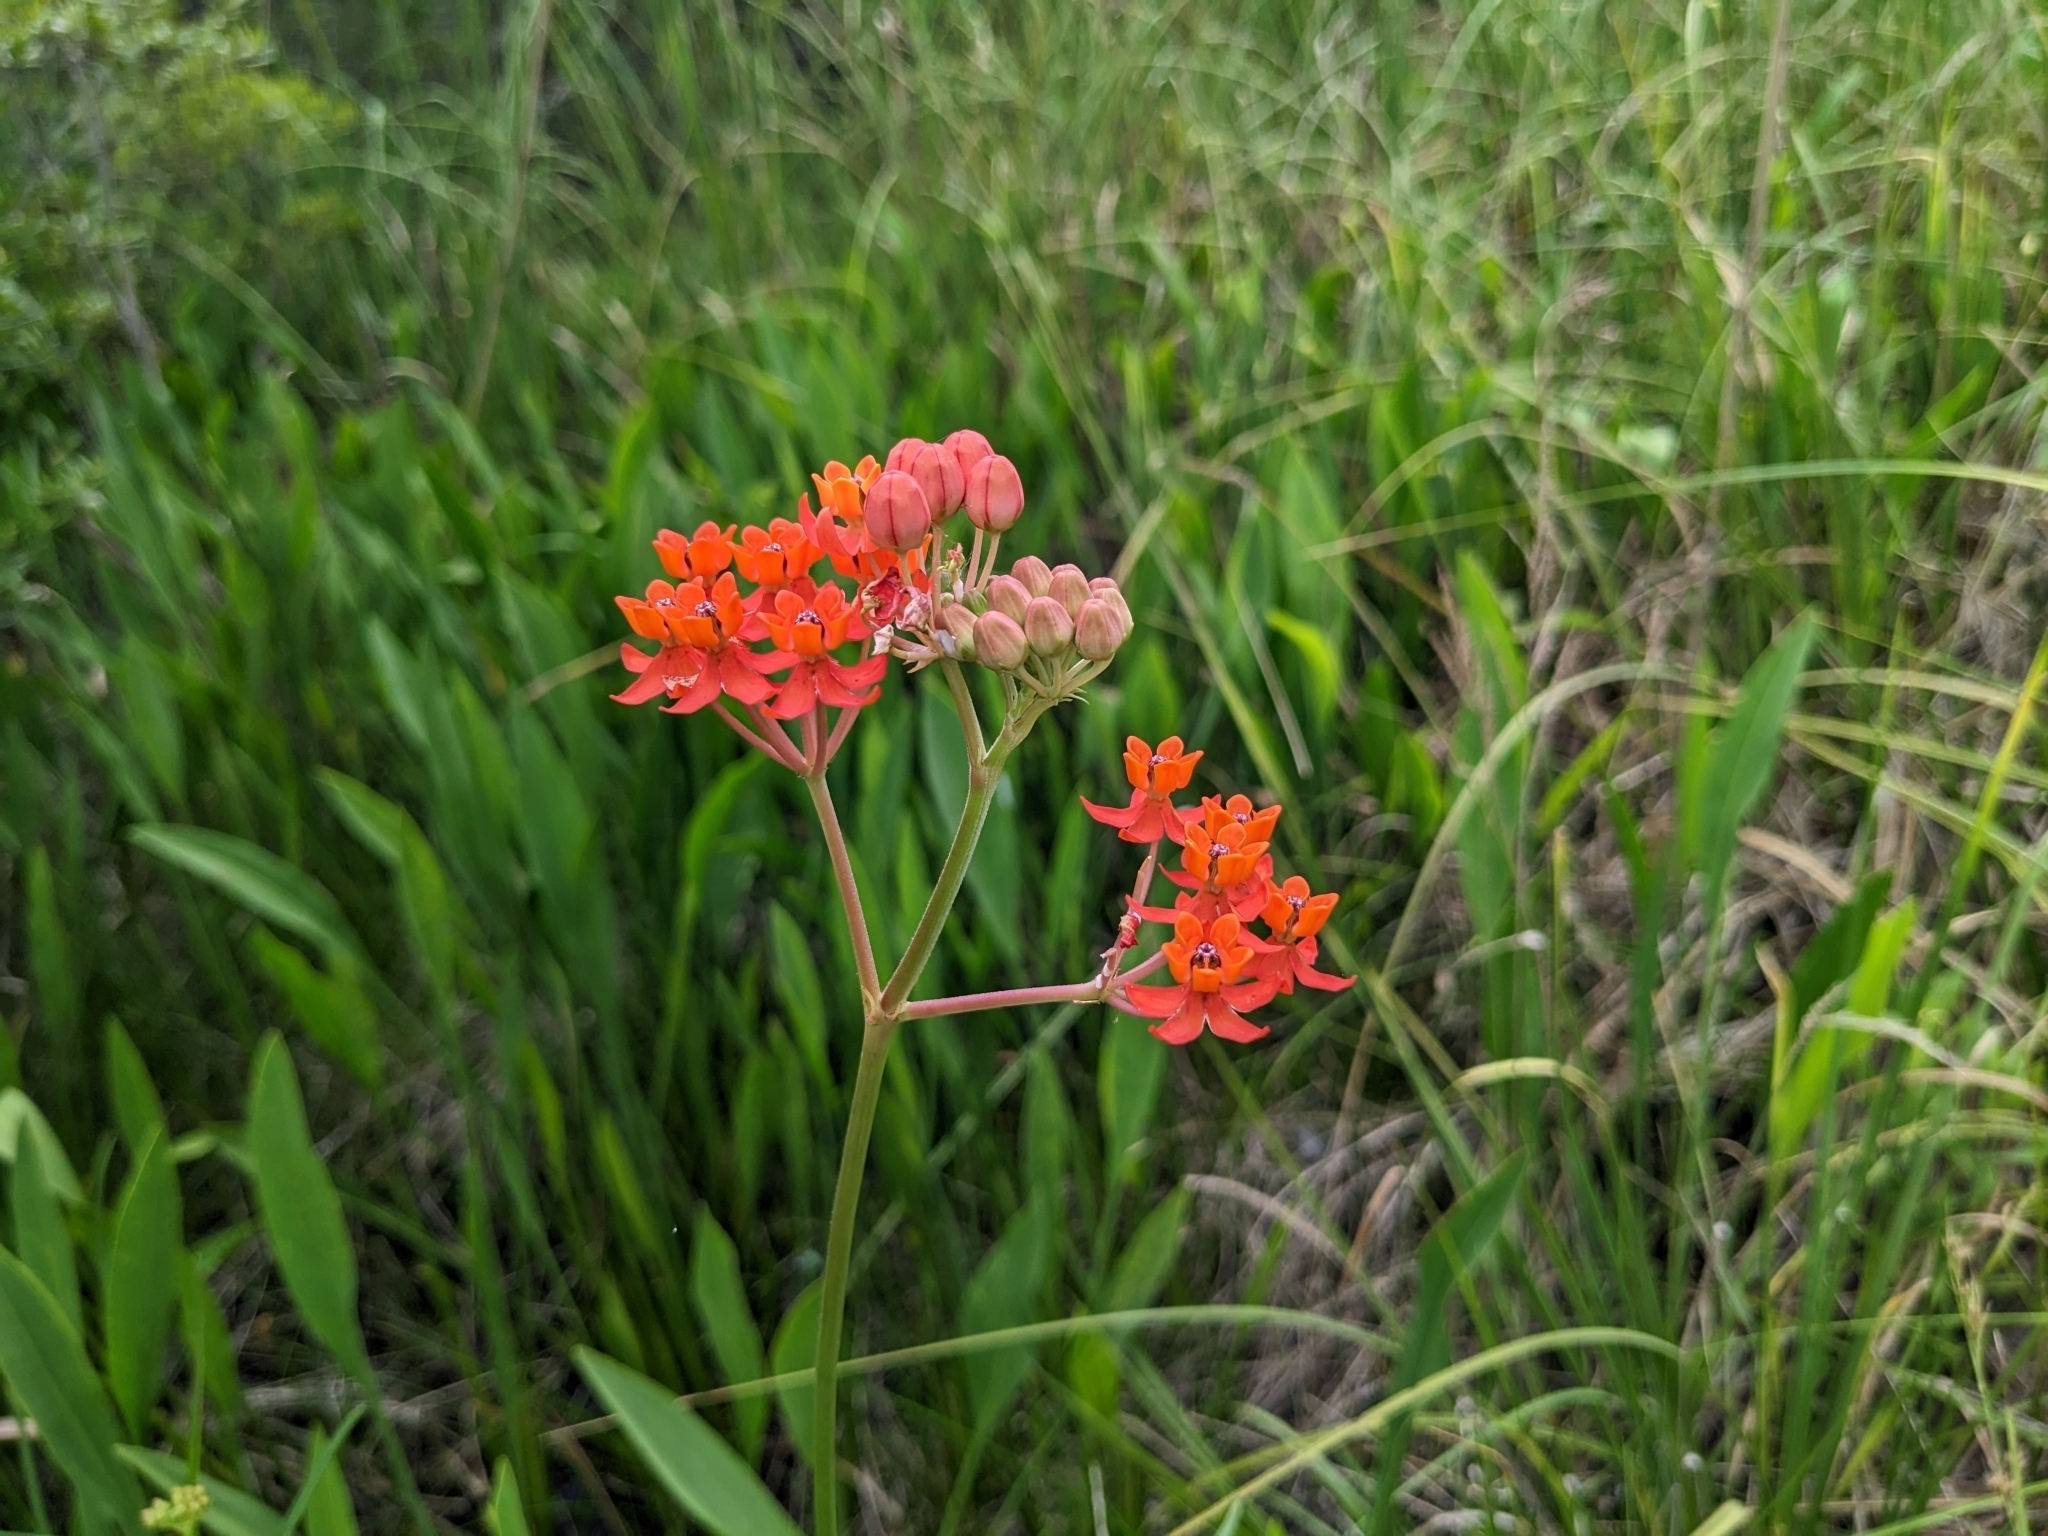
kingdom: Plantae
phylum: Tracheophyta
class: Magnoliopsida
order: Gentianales
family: Apocynaceae
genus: Asclepias
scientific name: Asclepias lanceolata
